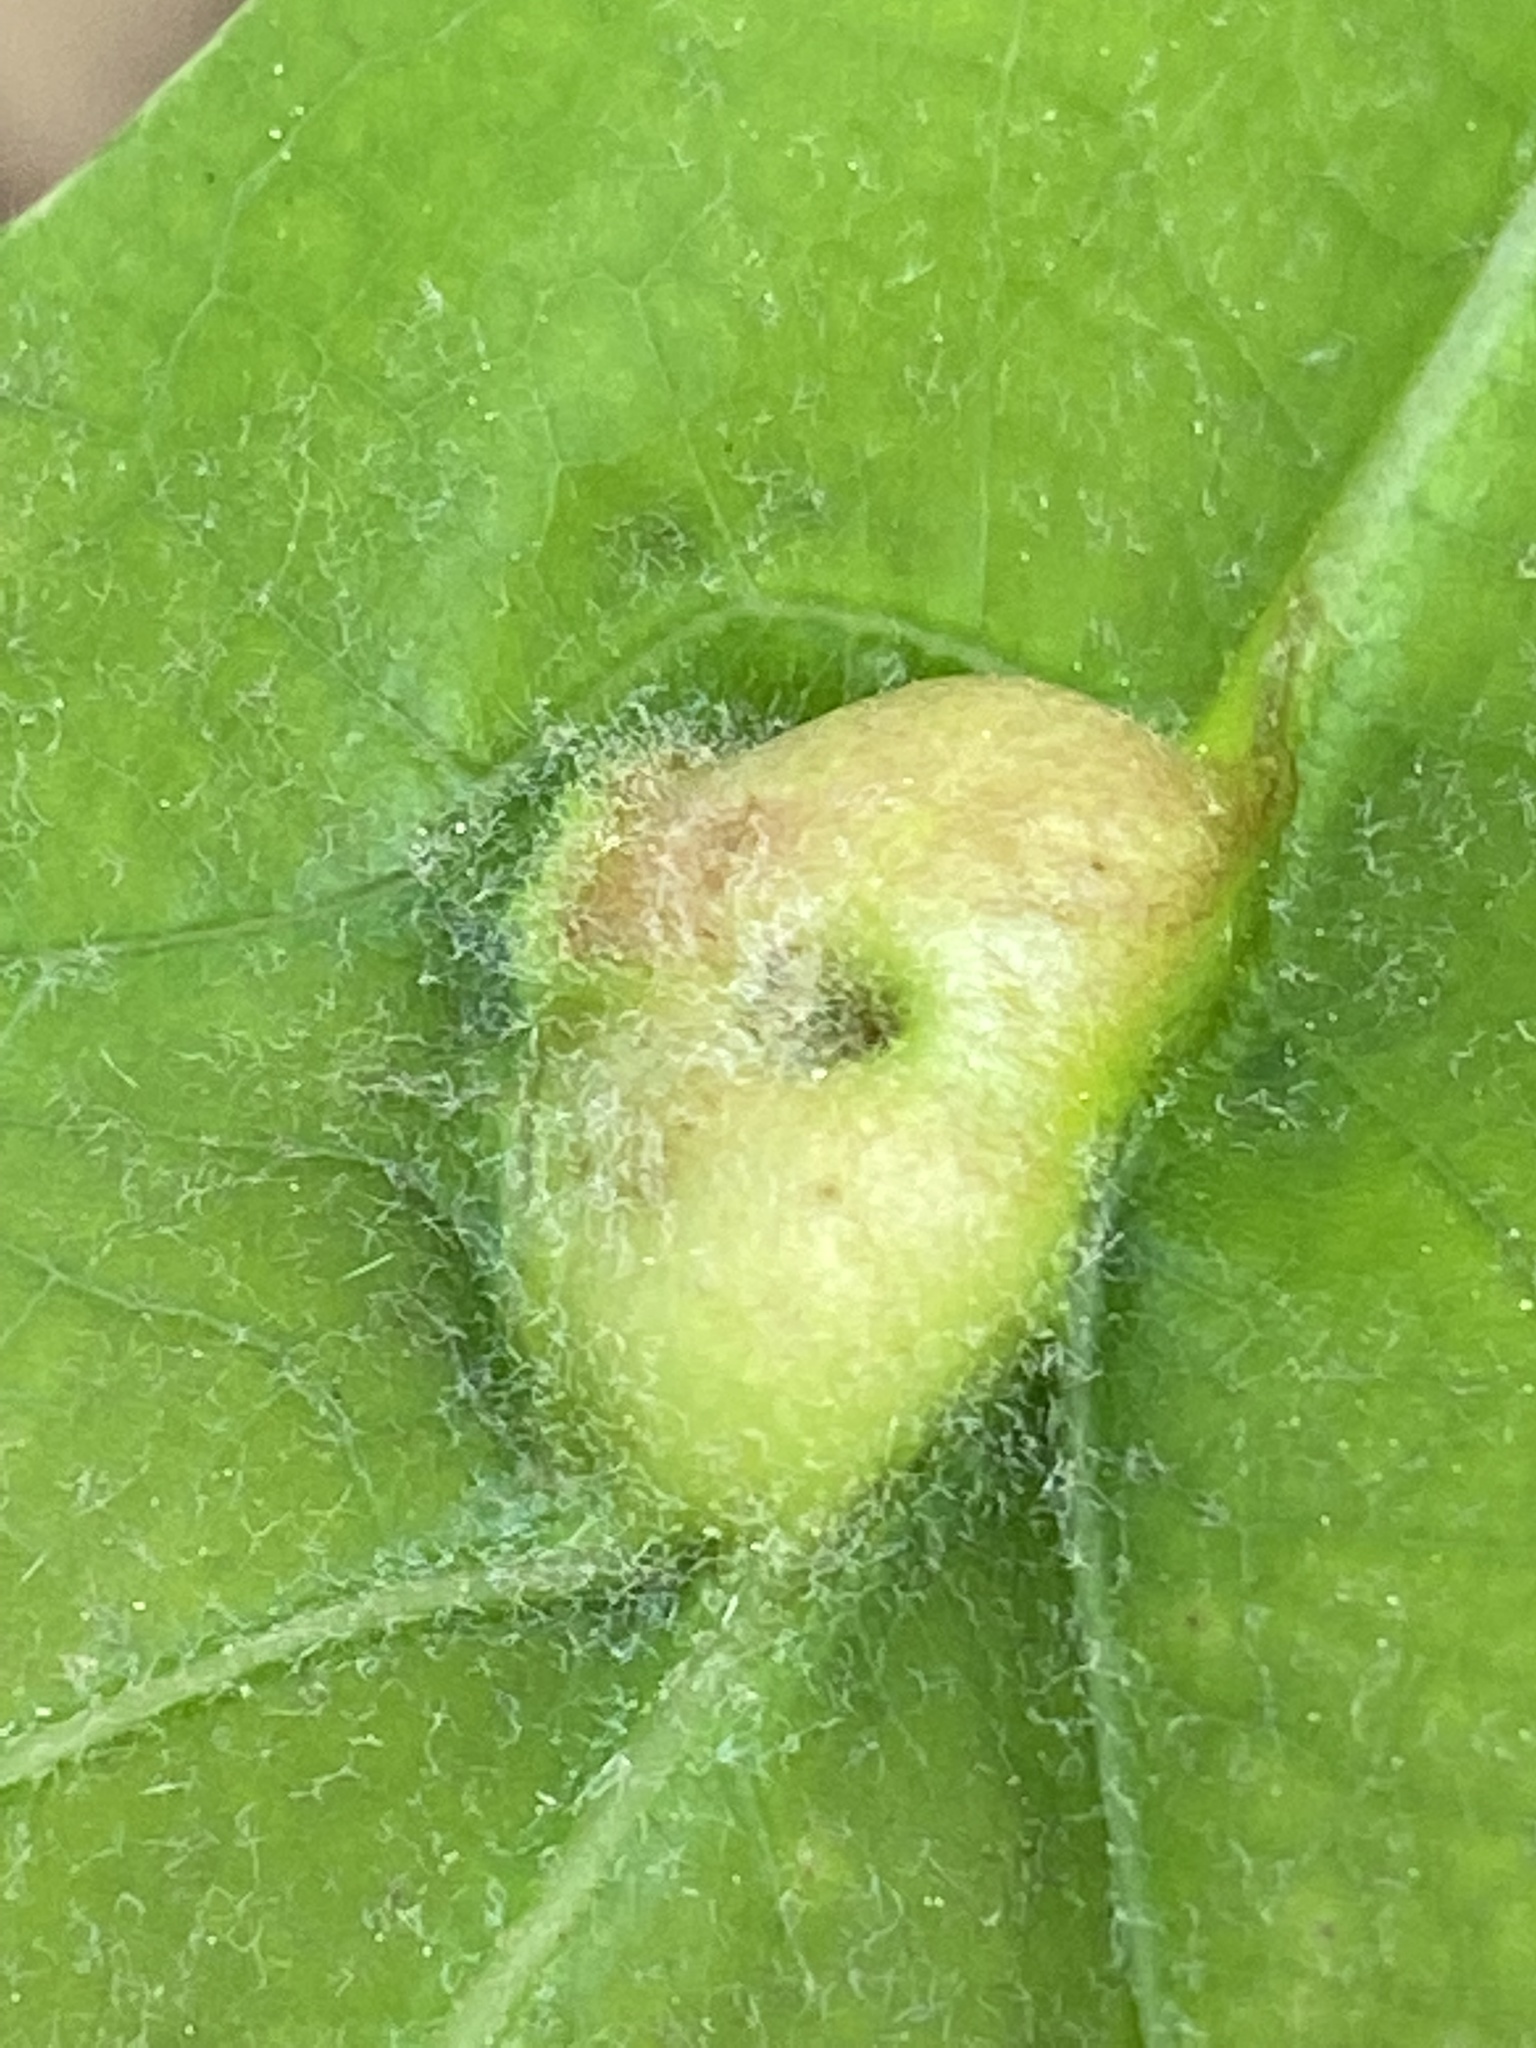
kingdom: Animalia
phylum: Arthropoda
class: Insecta
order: Hymenoptera
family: Cynipidae
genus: Andricus
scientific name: Andricus
